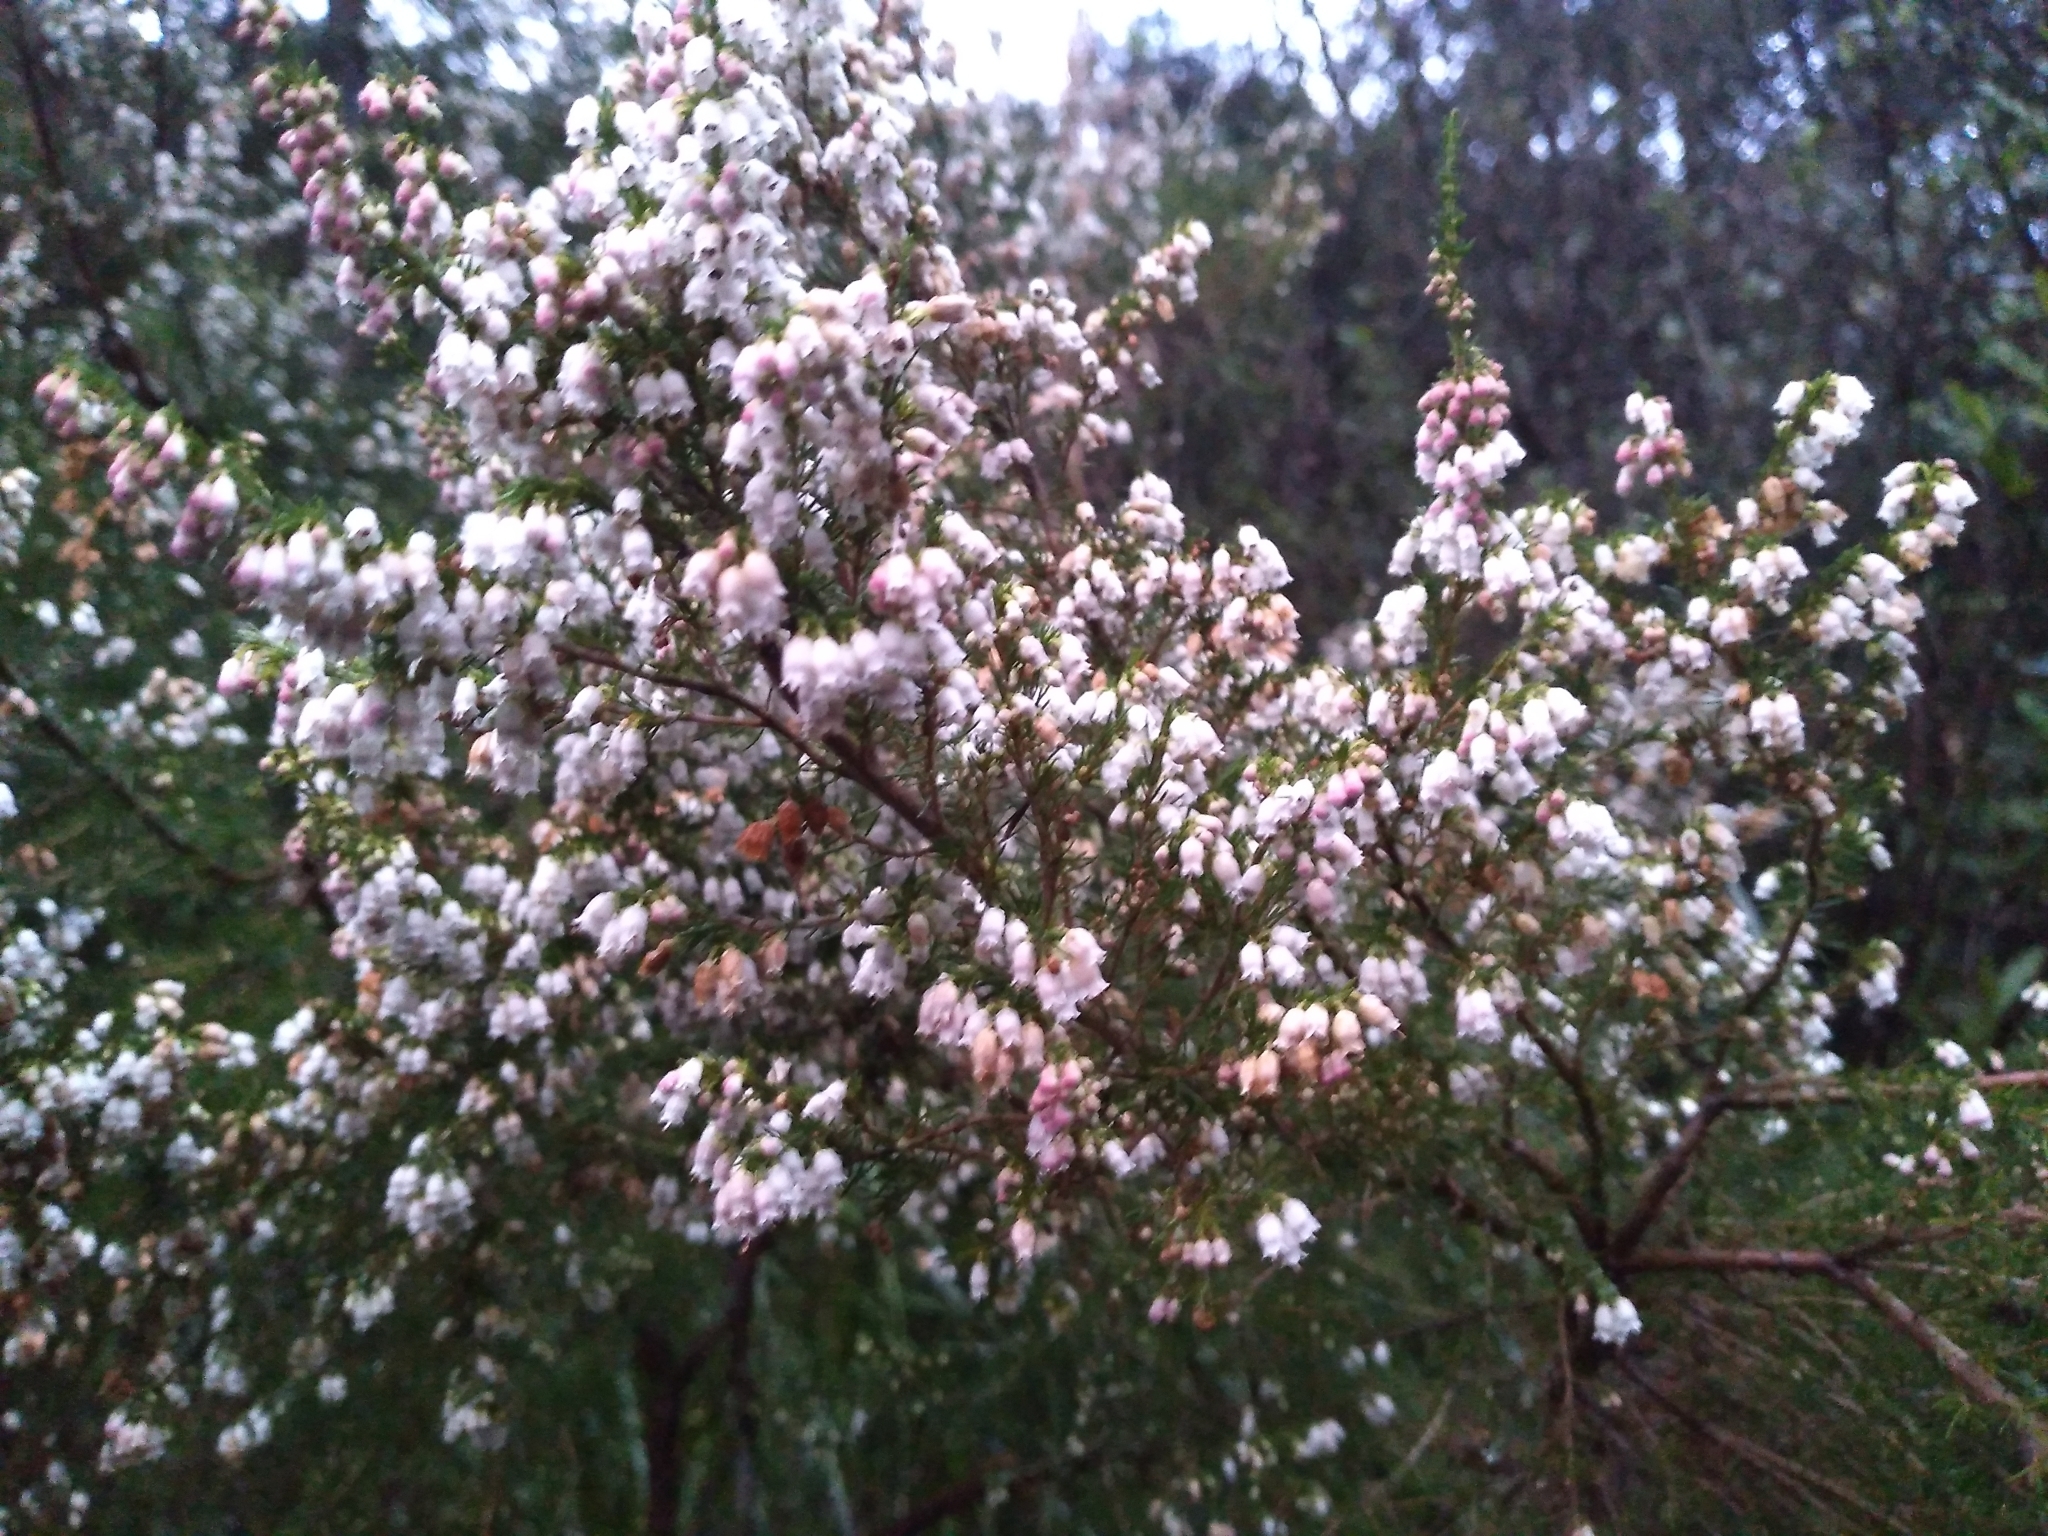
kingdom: Plantae
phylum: Tracheophyta
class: Magnoliopsida
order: Ericales
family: Ericaceae
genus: Erica
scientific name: Erica lusitanica
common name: Spanish heath
